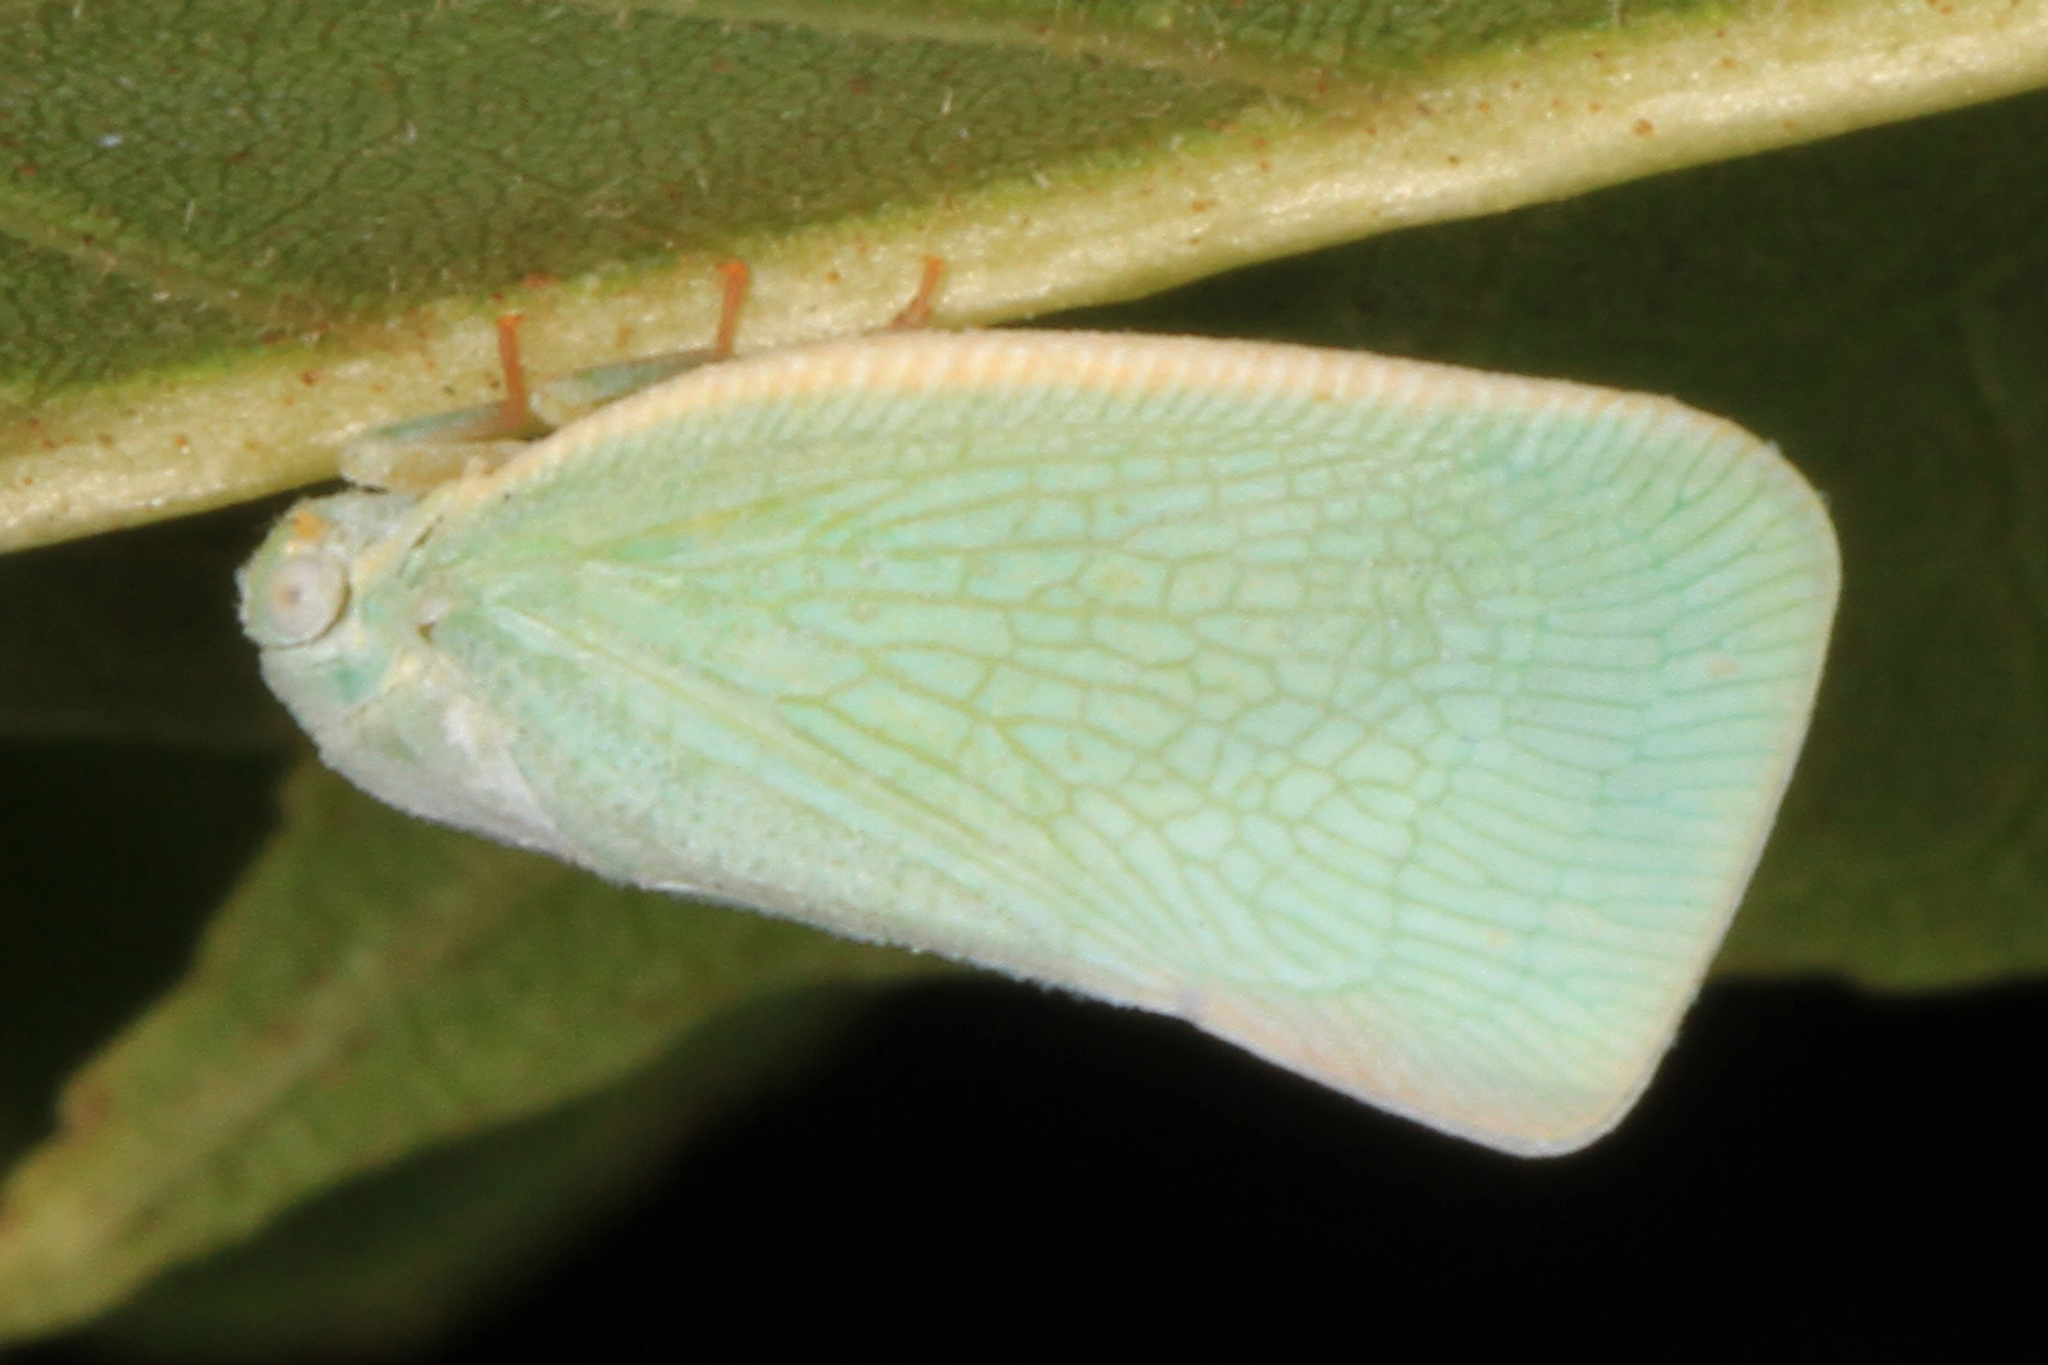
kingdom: Animalia
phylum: Arthropoda
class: Insecta
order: Hemiptera
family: Flatidae
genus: Flatormenis
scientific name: Flatormenis proxima
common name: Northern flatid planthopper
